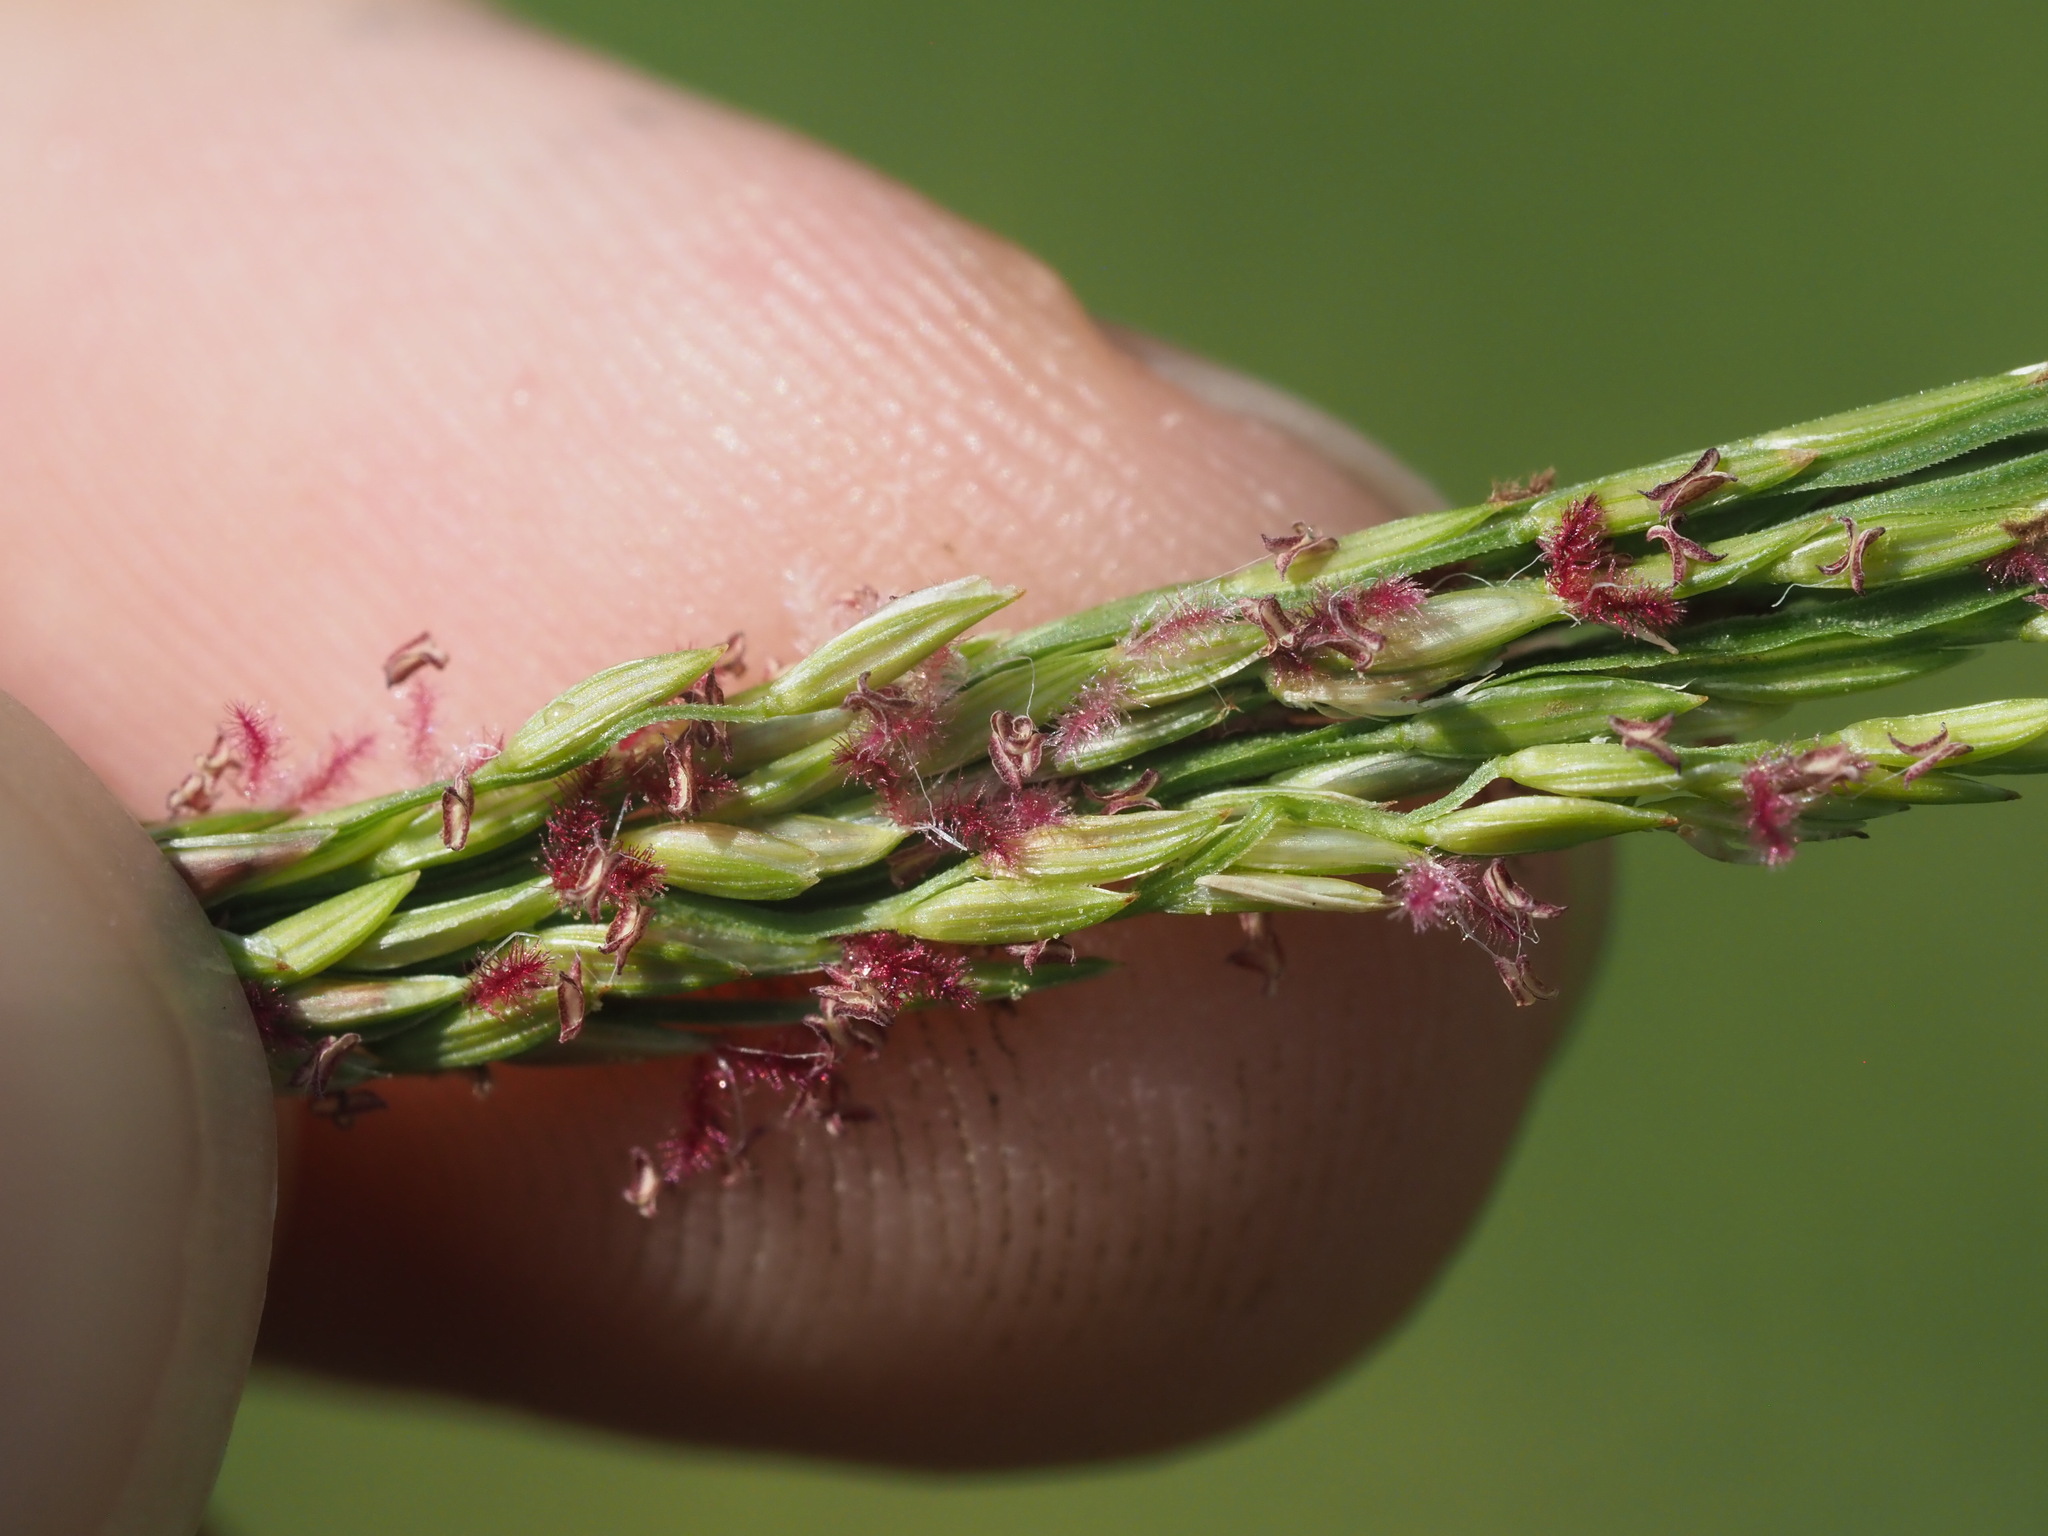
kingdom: Plantae
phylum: Tracheophyta
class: Liliopsida
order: Poales
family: Poaceae
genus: Digitaria
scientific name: Digitaria setigera
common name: East indian crabgrass
